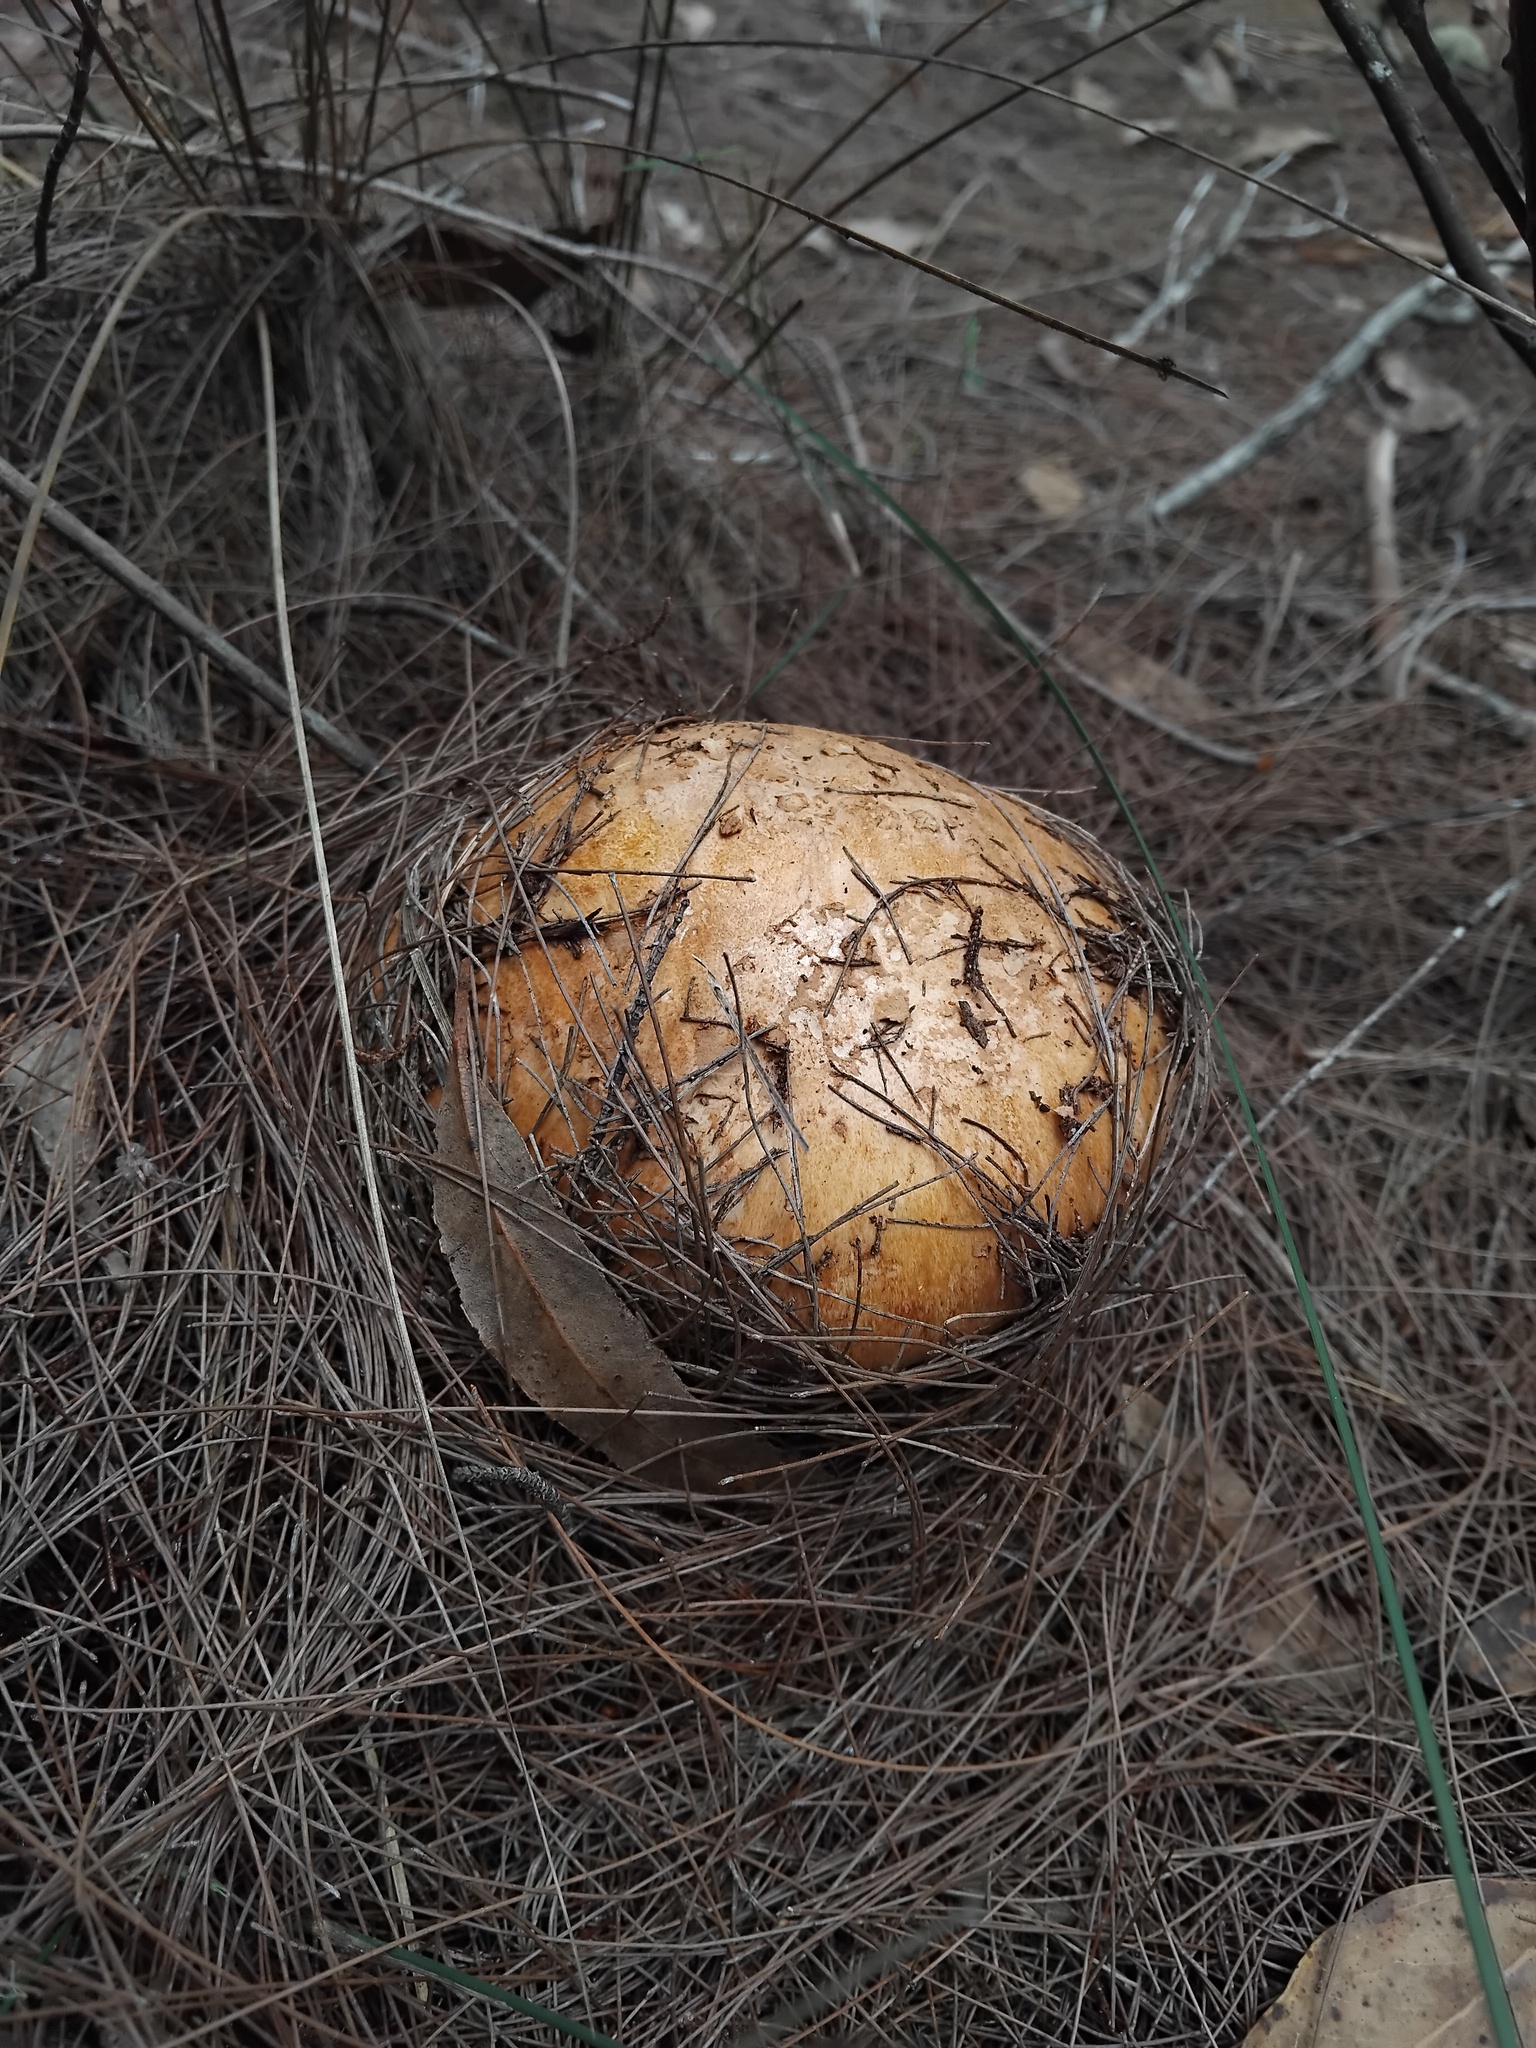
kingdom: Fungi
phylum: Basidiomycota
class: Agaricomycetes
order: Agaricales
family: Amanitaceae
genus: Amanita
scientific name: Amanita ochrophylla
